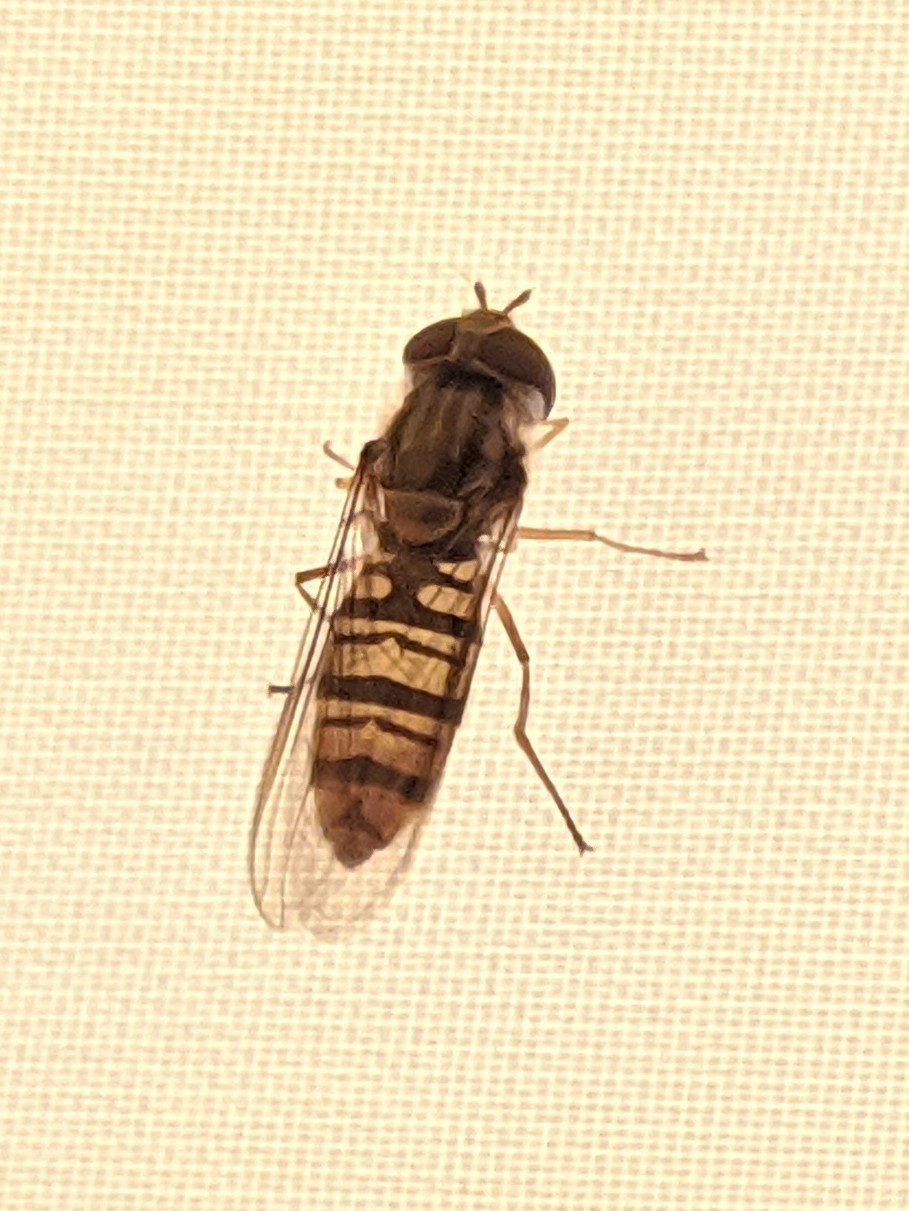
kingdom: Animalia
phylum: Arthropoda
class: Insecta
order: Diptera
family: Syrphidae
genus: Episyrphus
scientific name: Episyrphus balteatus
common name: Marmalade hoverfly
